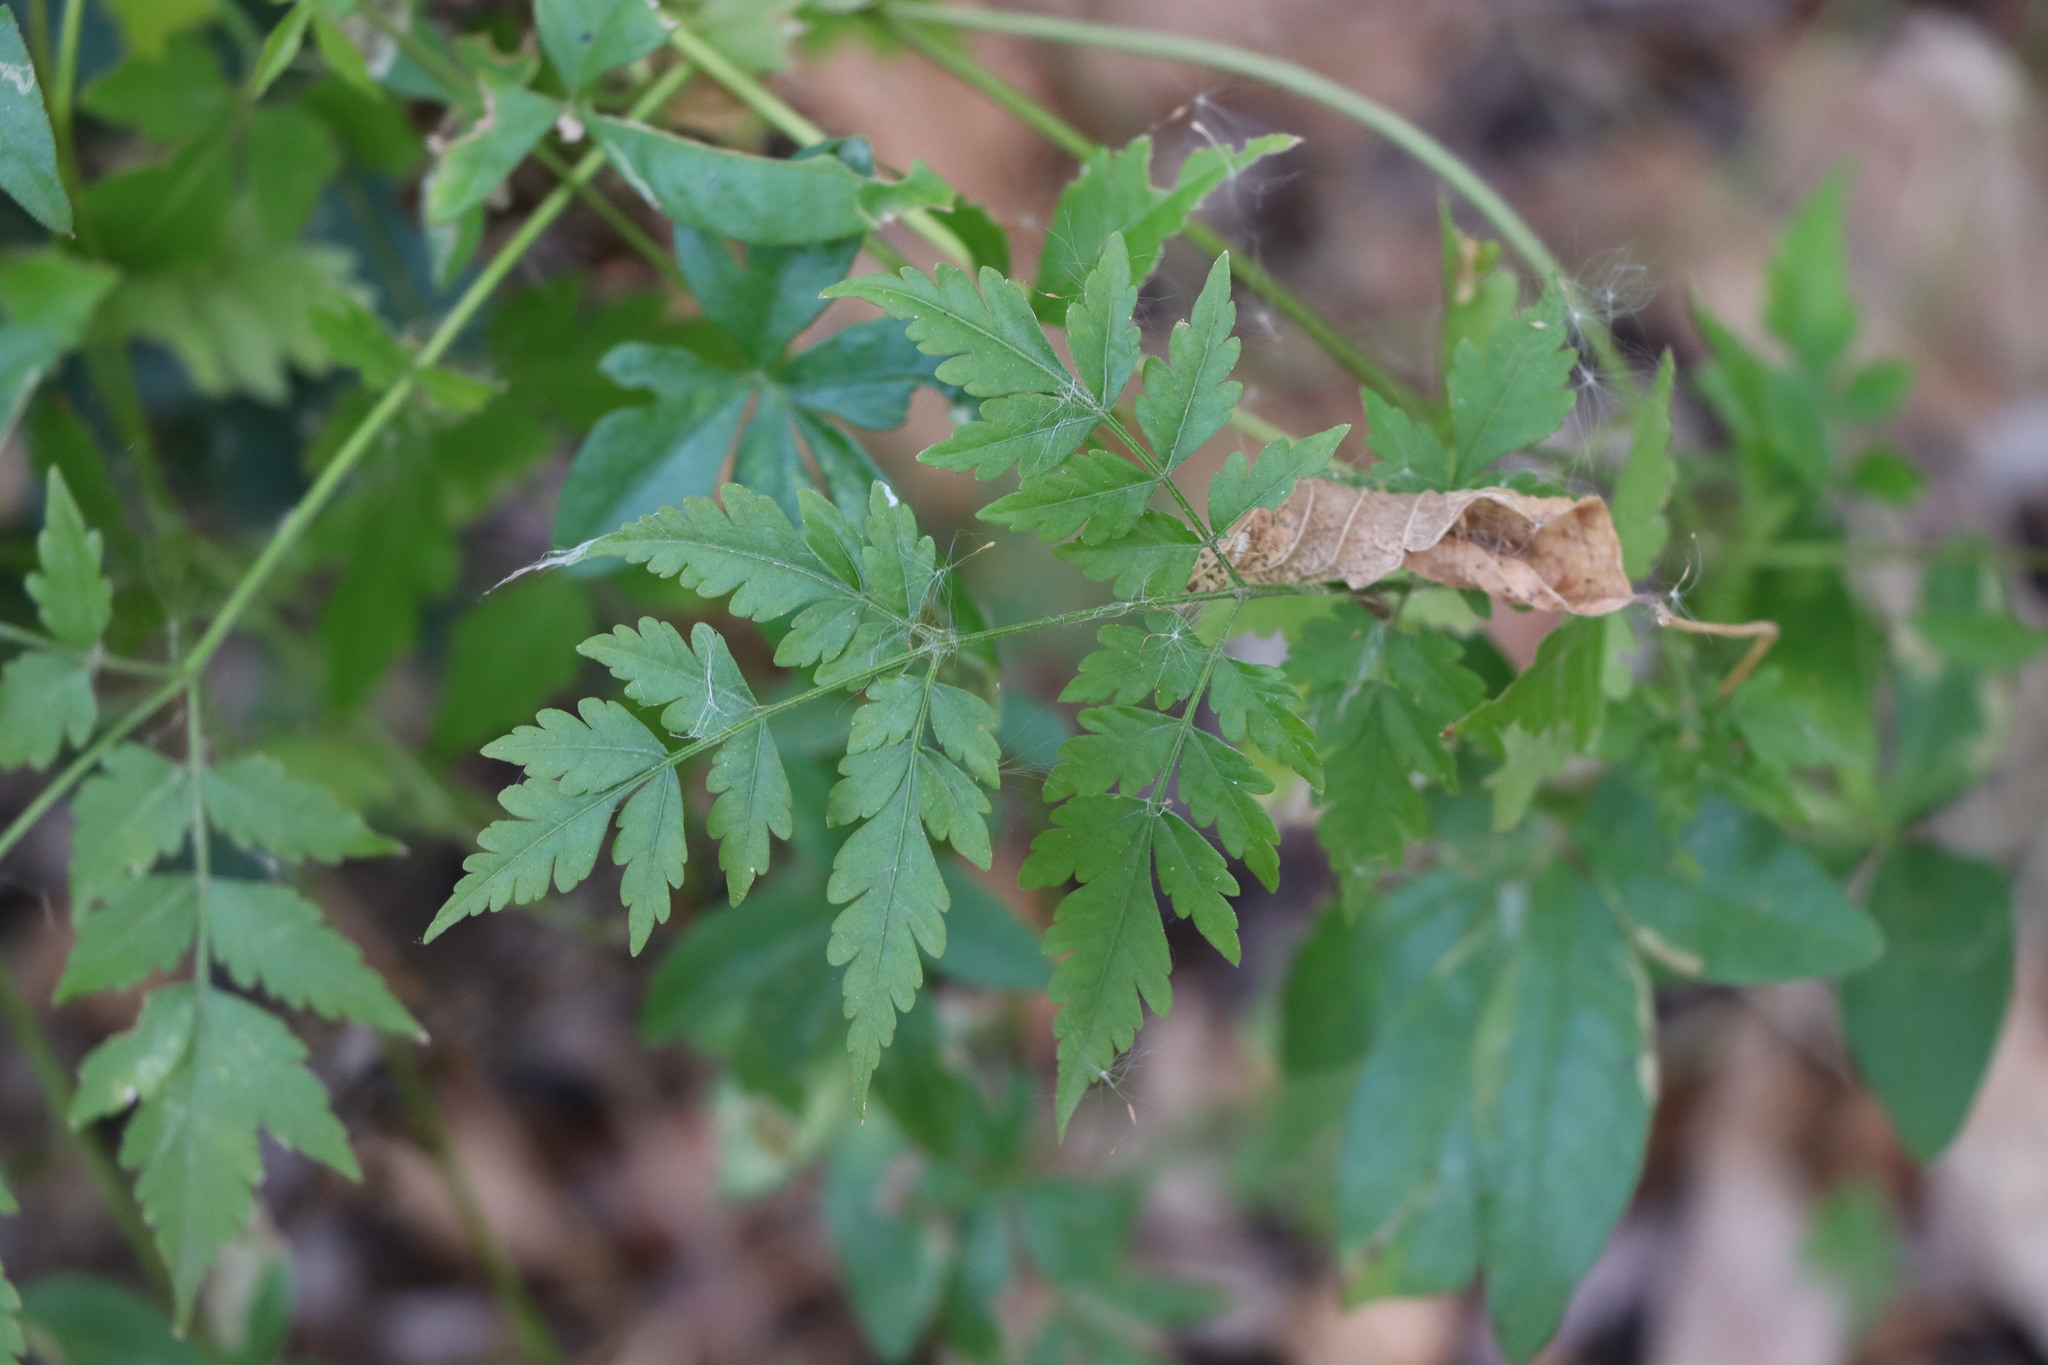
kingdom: Plantae
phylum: Tracheophyta
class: Magnoliopsida
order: Sapindales
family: Meliaceae
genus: Melia
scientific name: Melia azedarach
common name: Chinaberrytree
